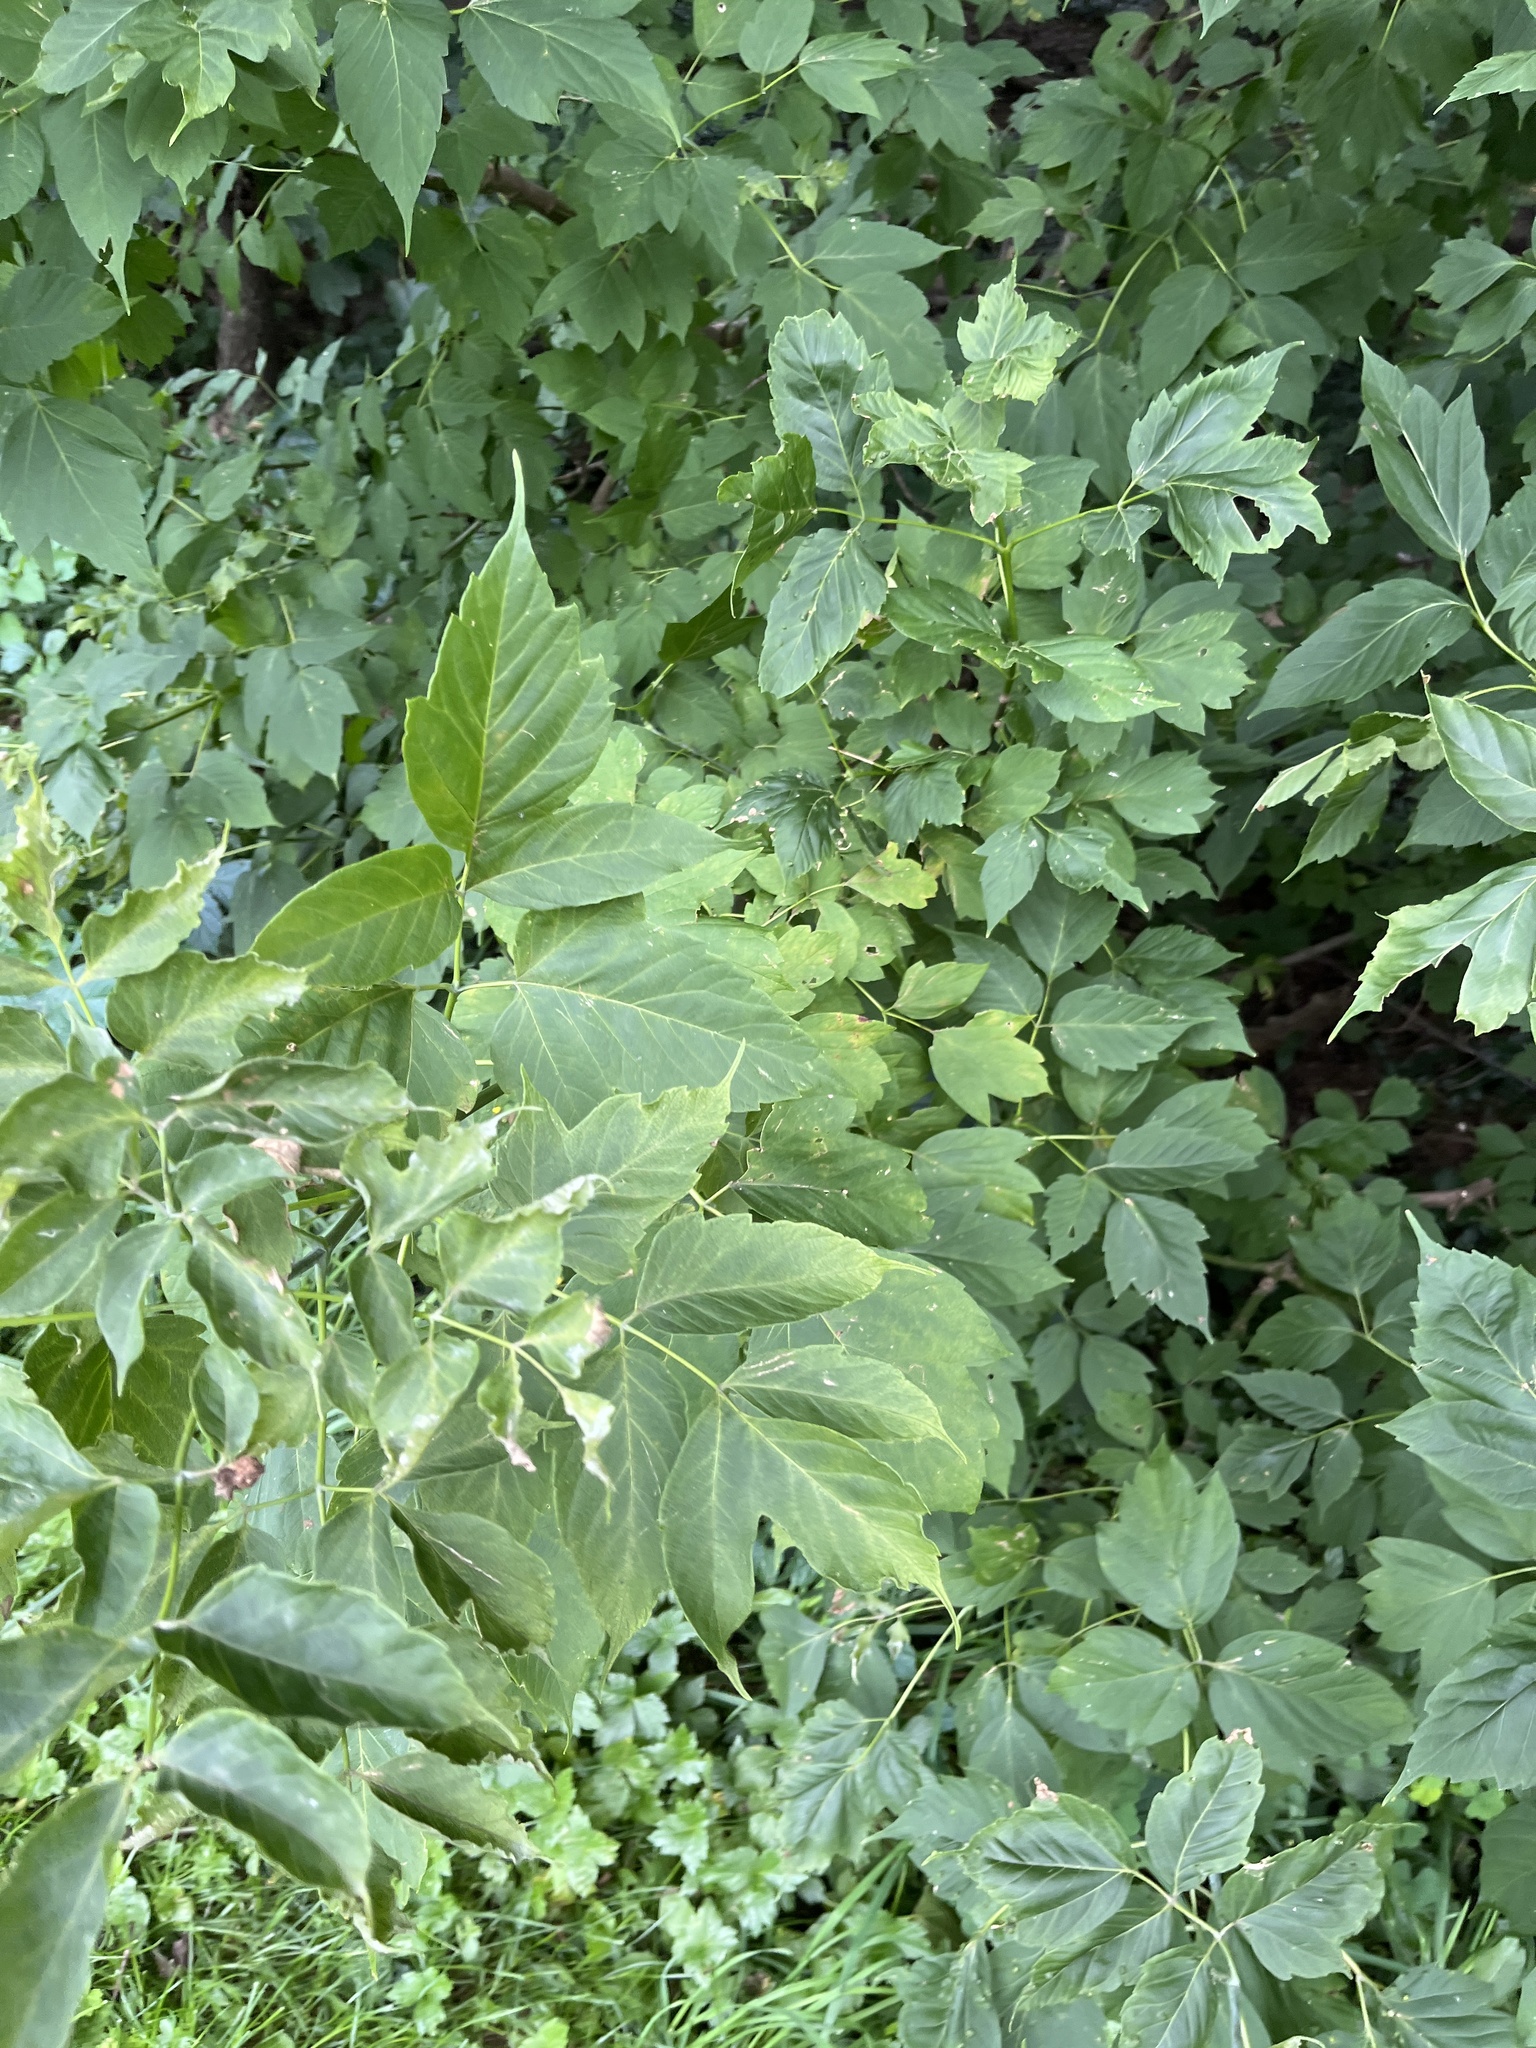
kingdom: Plantae
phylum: Tracheophyta
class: Magnoliopsida
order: Sapindales
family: Sapindaceae
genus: Acer
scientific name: Acer negundo
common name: Ashleaf maple
